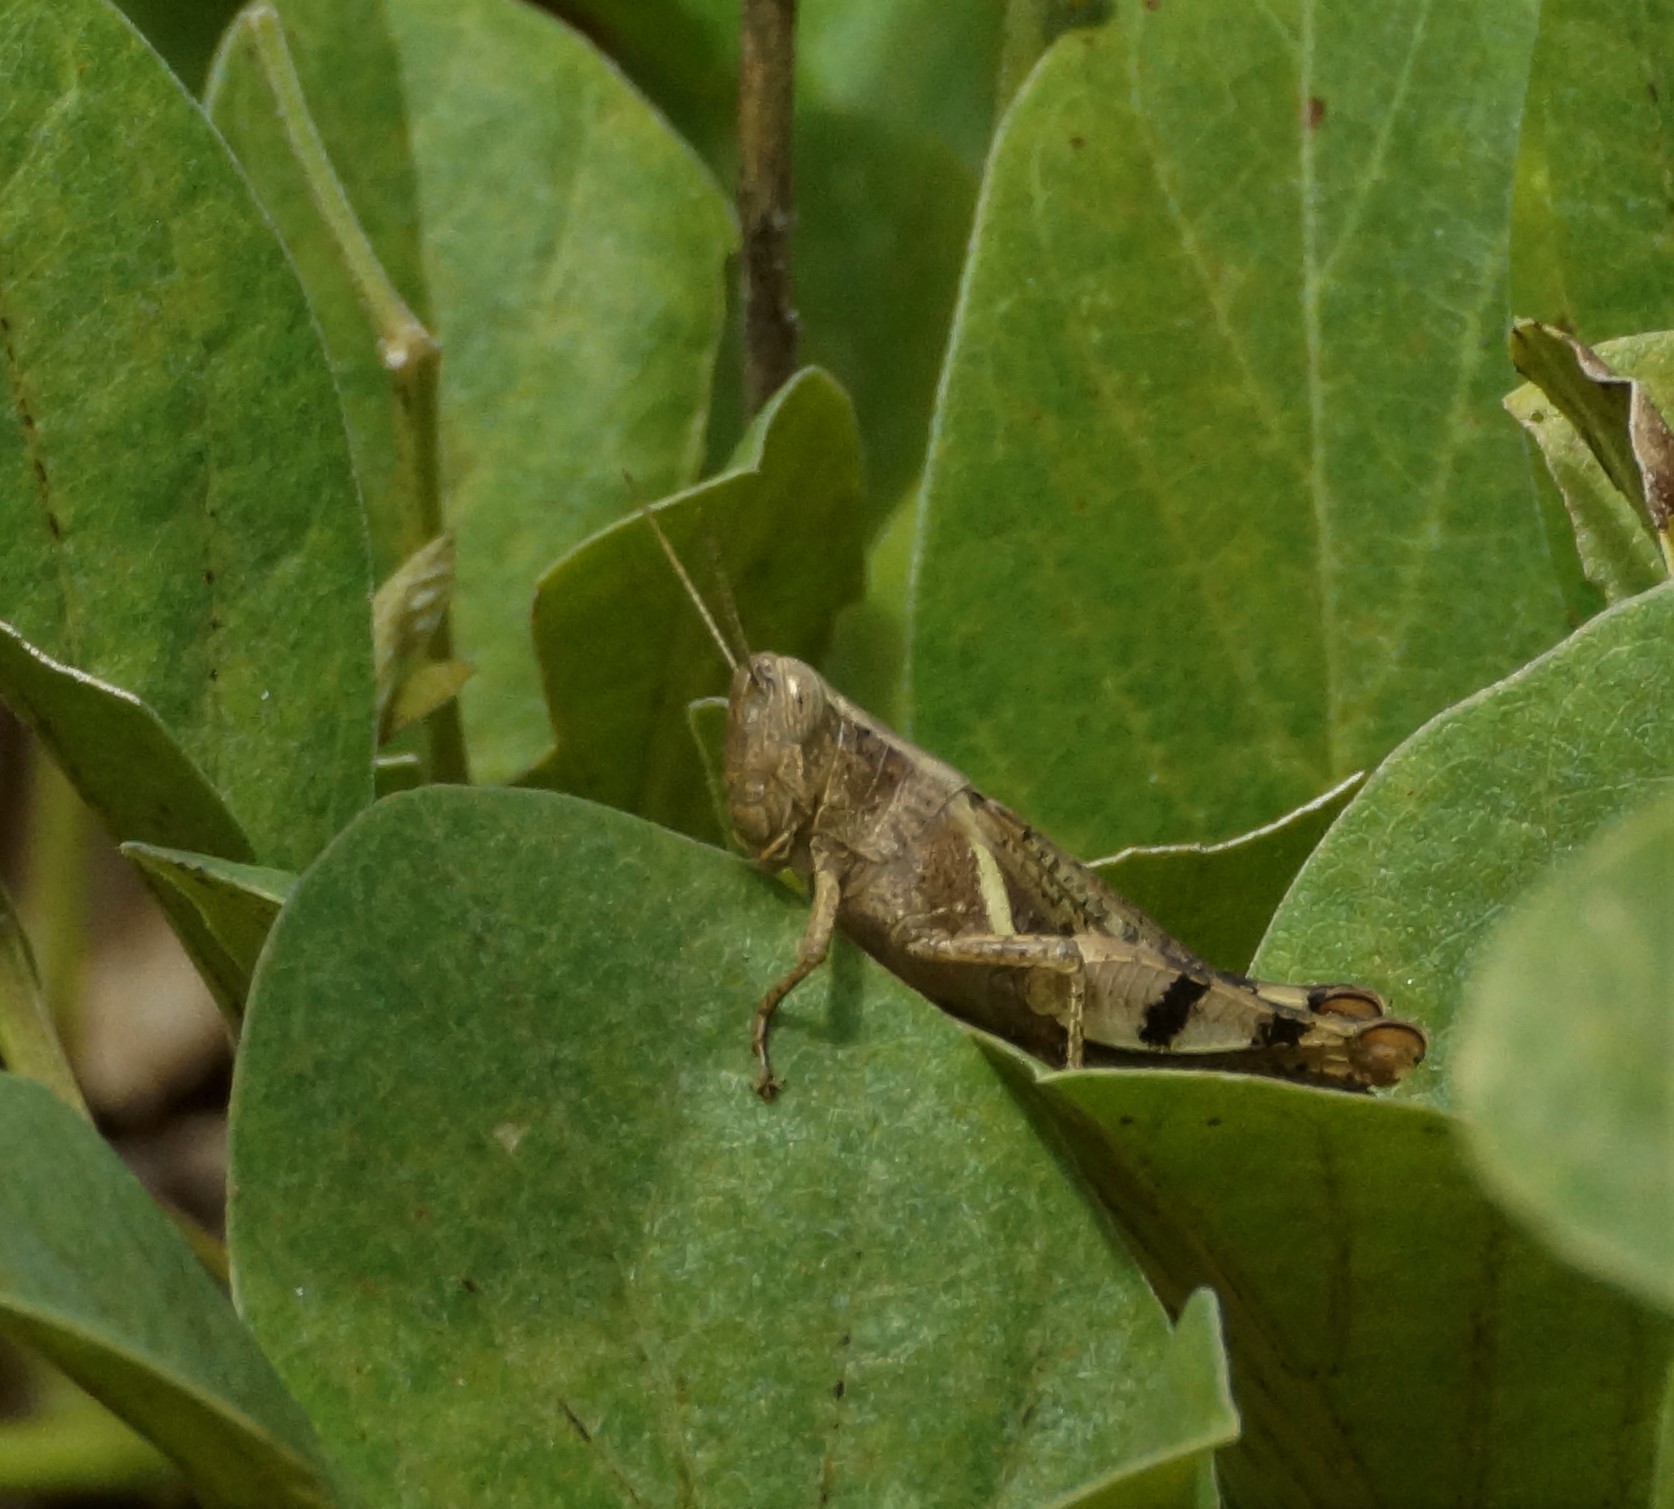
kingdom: Animalia
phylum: Arthropoda
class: Insecta
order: Orthoptera
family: Acrididae
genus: Stenocatantops
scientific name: Stenocatantops angustifrons
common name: Common tropical sharptail
